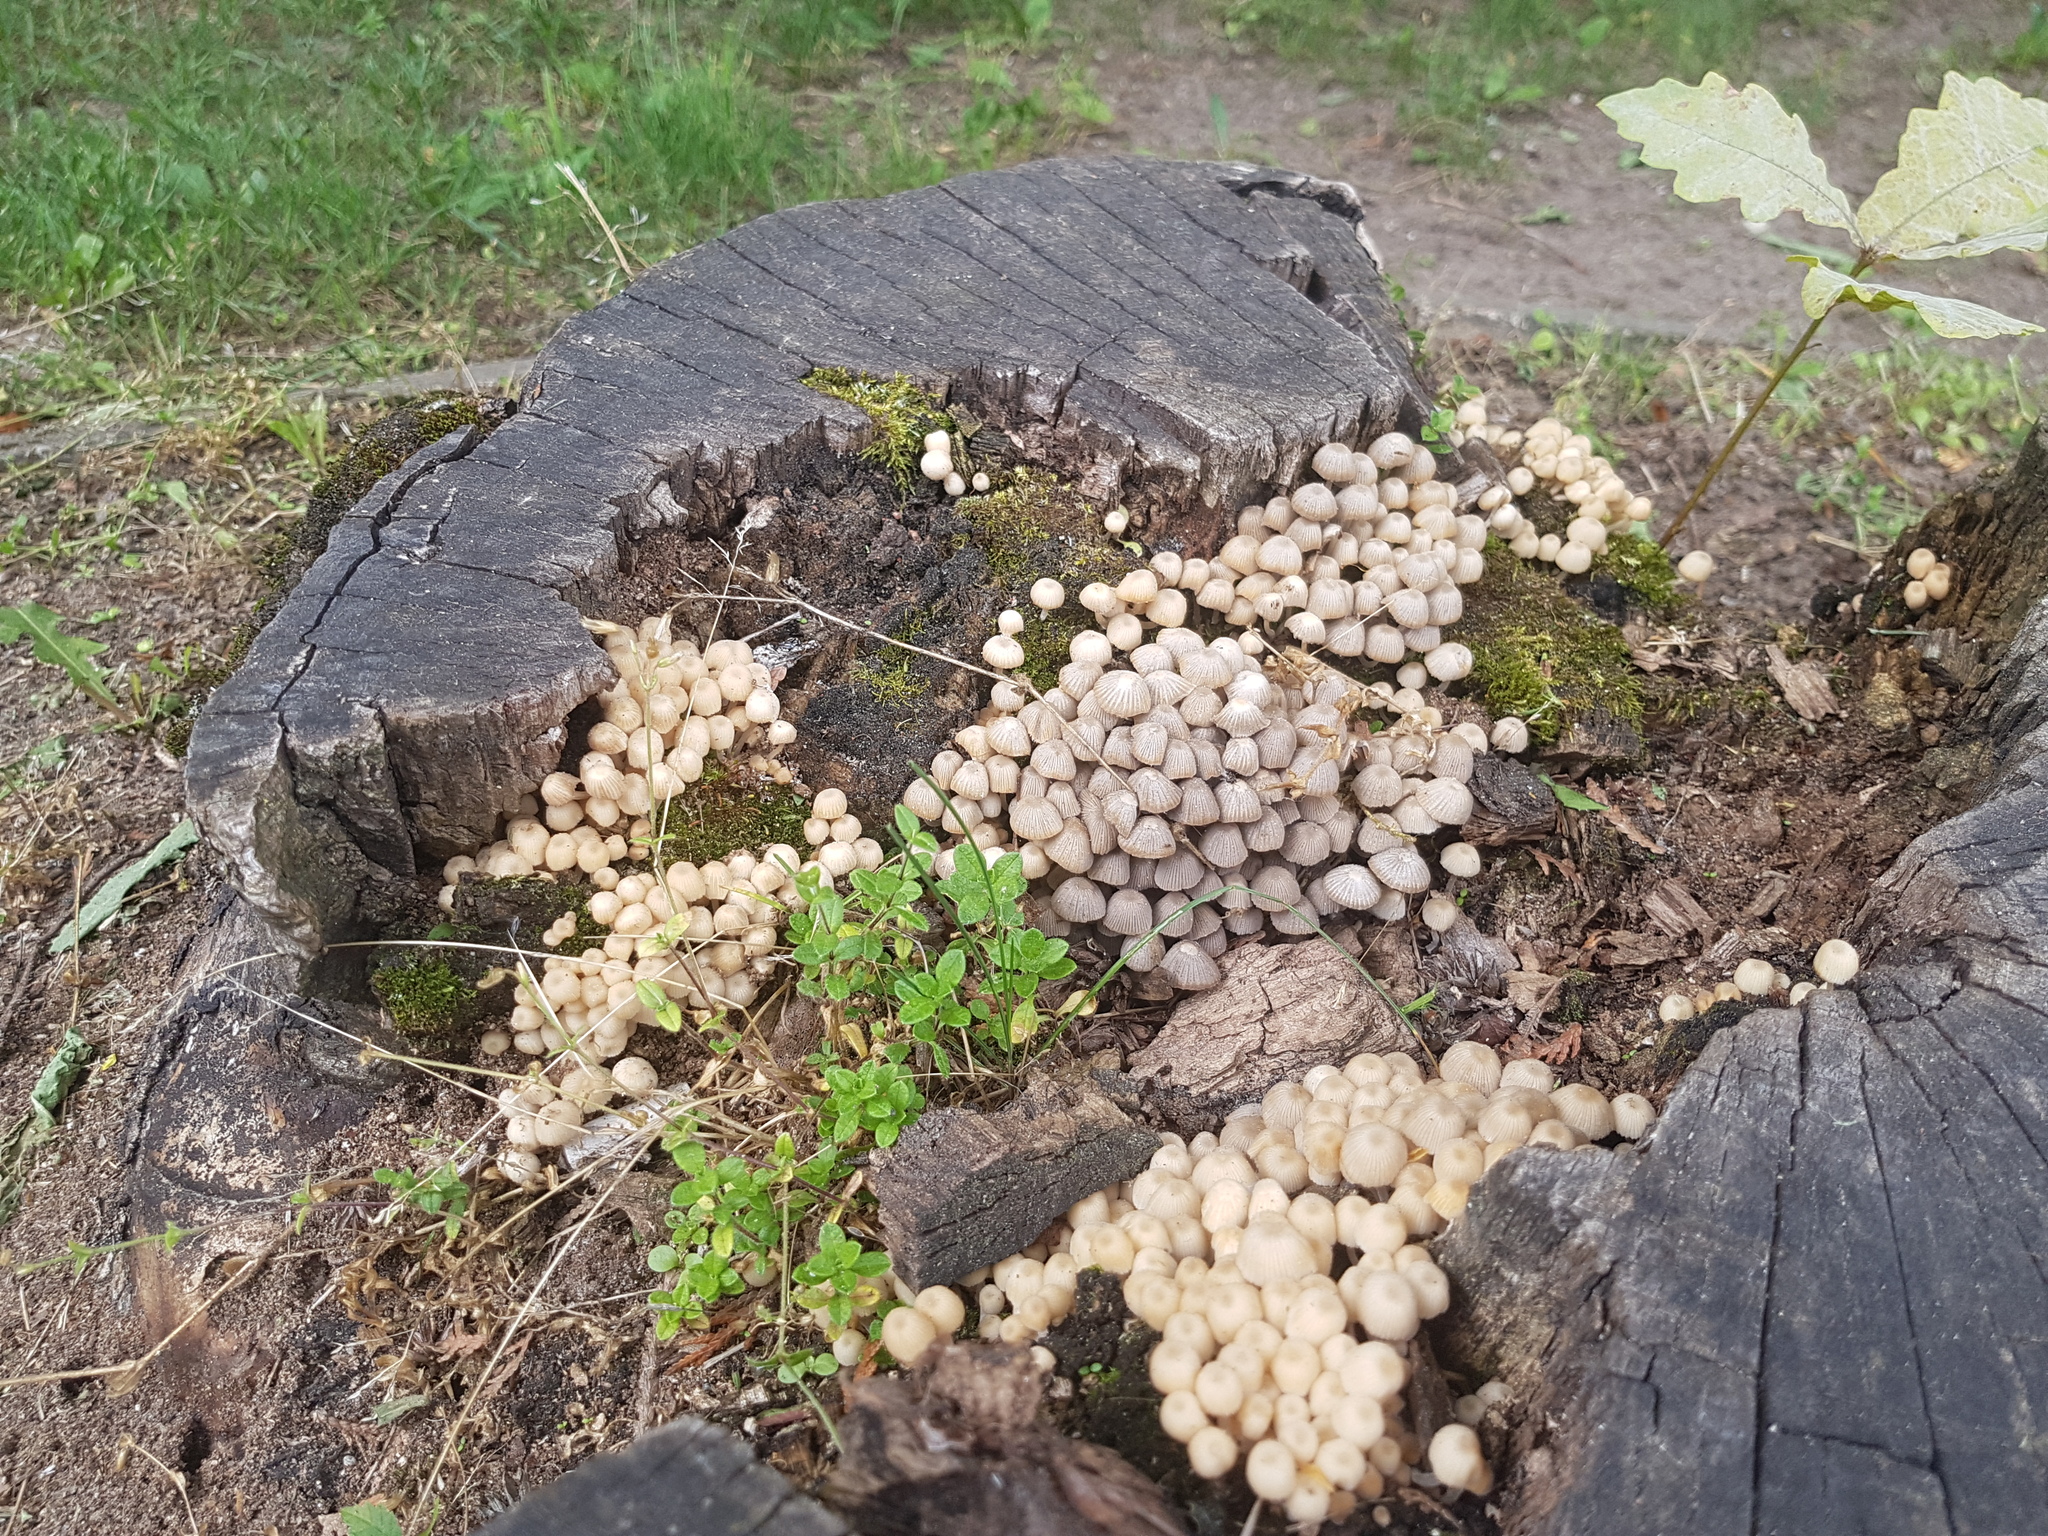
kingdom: Fungi
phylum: Basidiomycota
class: Agaricomycetes
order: Agaricales
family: Psathyrellaceae
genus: Coprinellus
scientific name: Coprinellus disseminatus
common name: Fairies' bonnets
